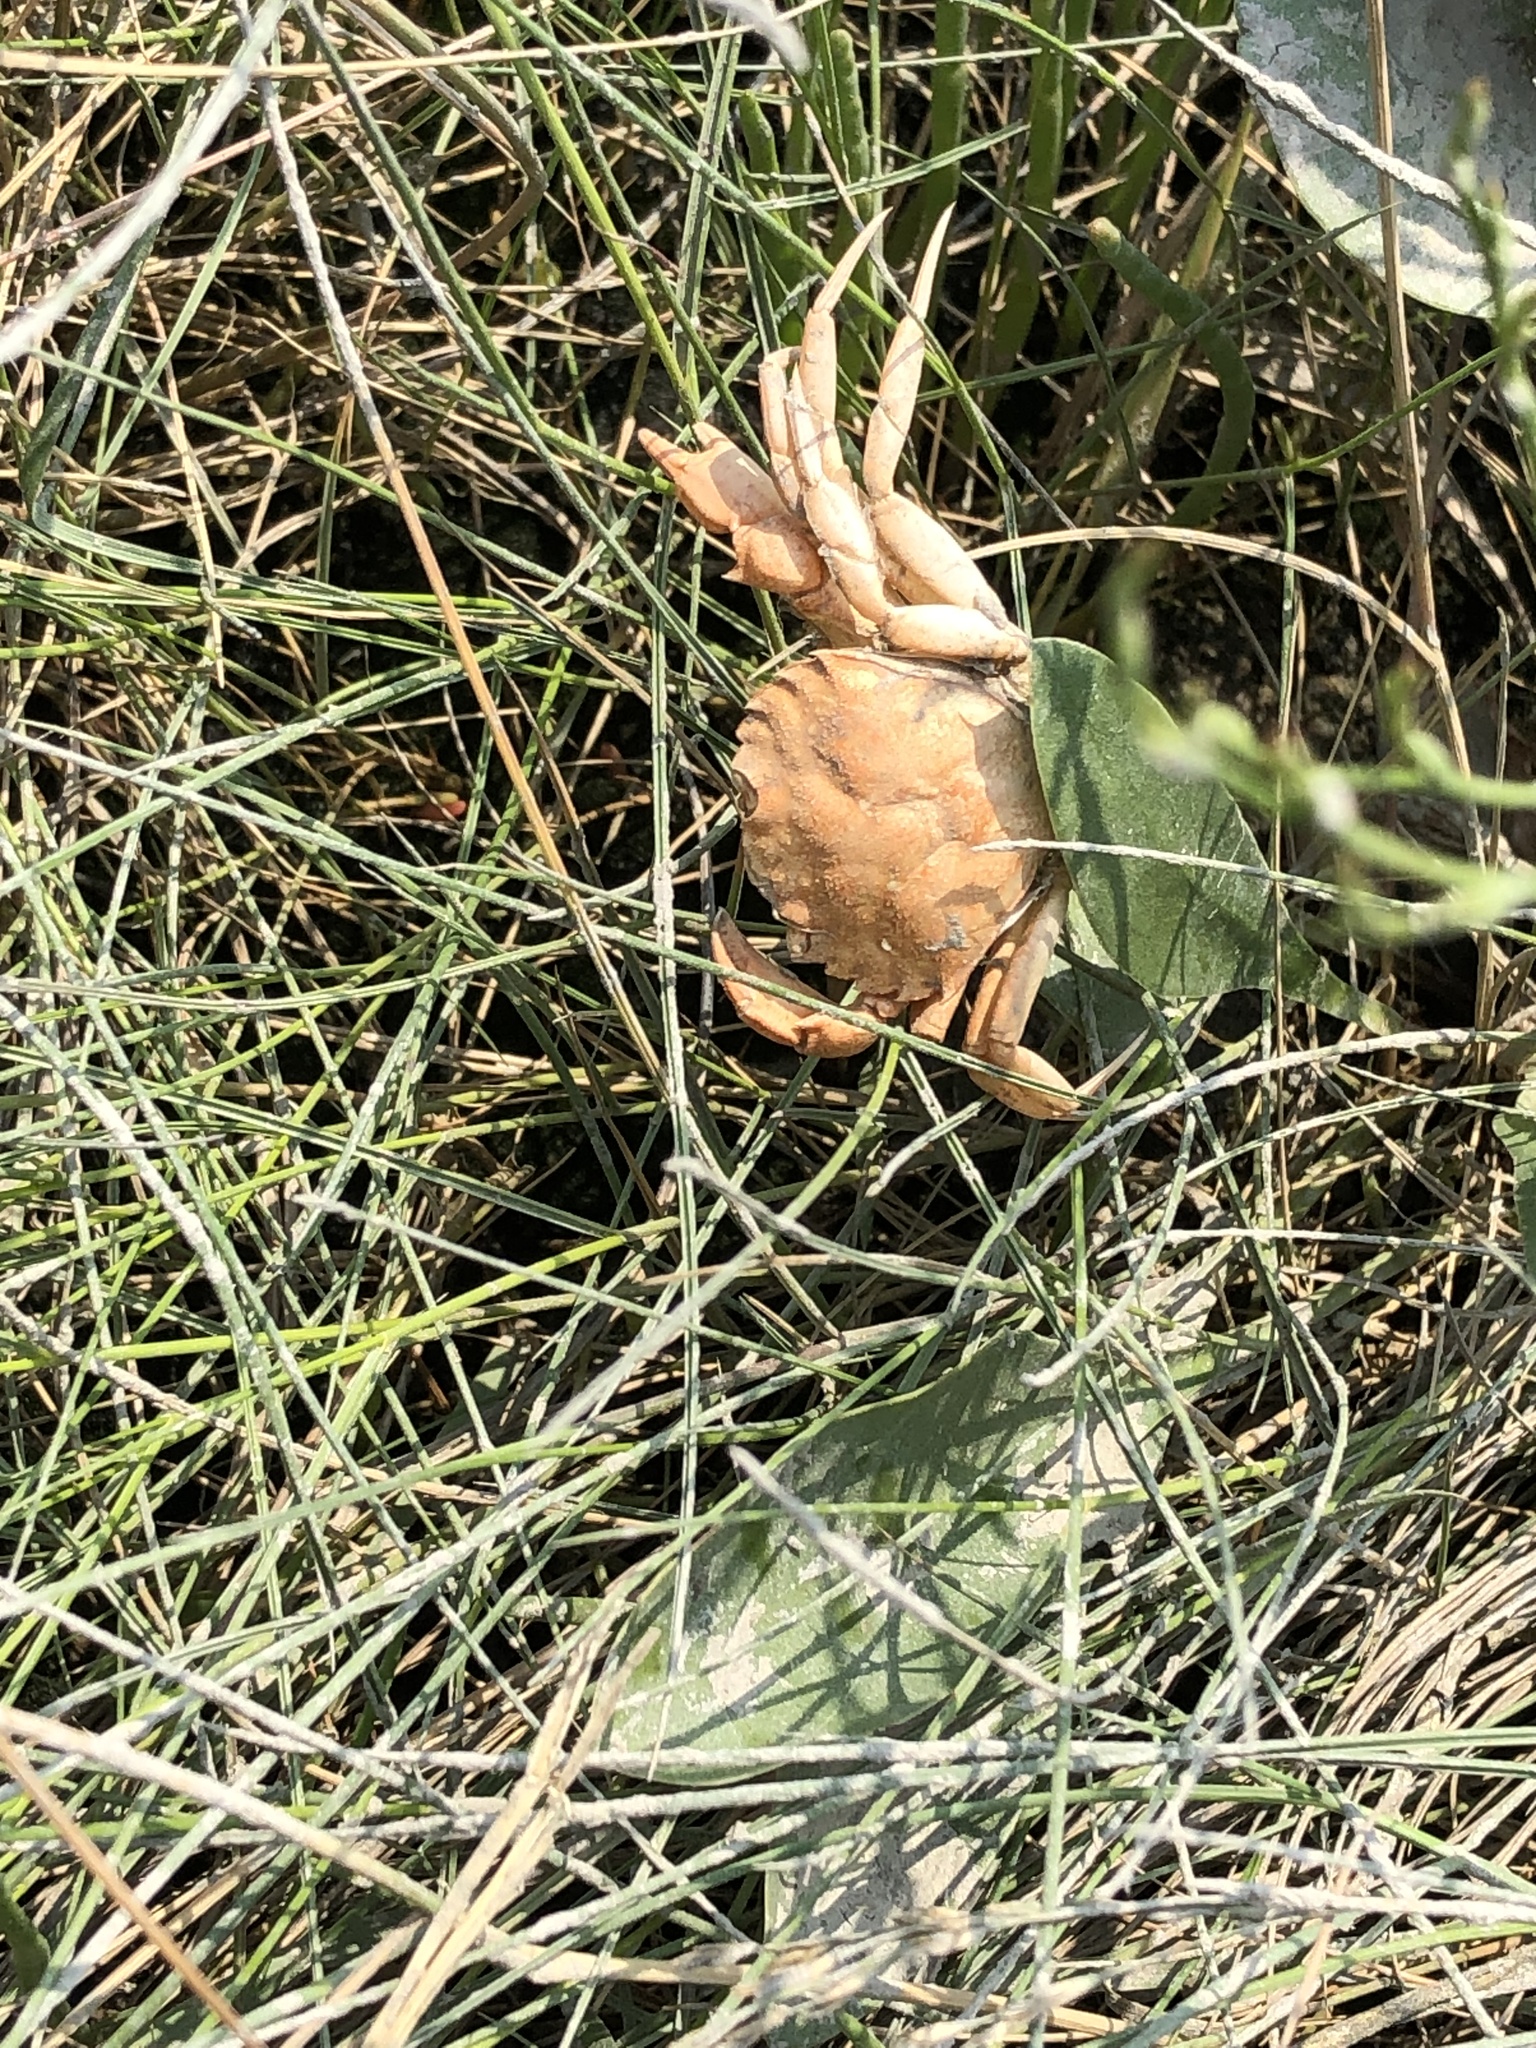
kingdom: Animalia
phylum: Arthropoda
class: Malacostraca
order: Decapoda
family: Carcinidae
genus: Carcinus
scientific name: Carcinus maenas
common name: European green crab
